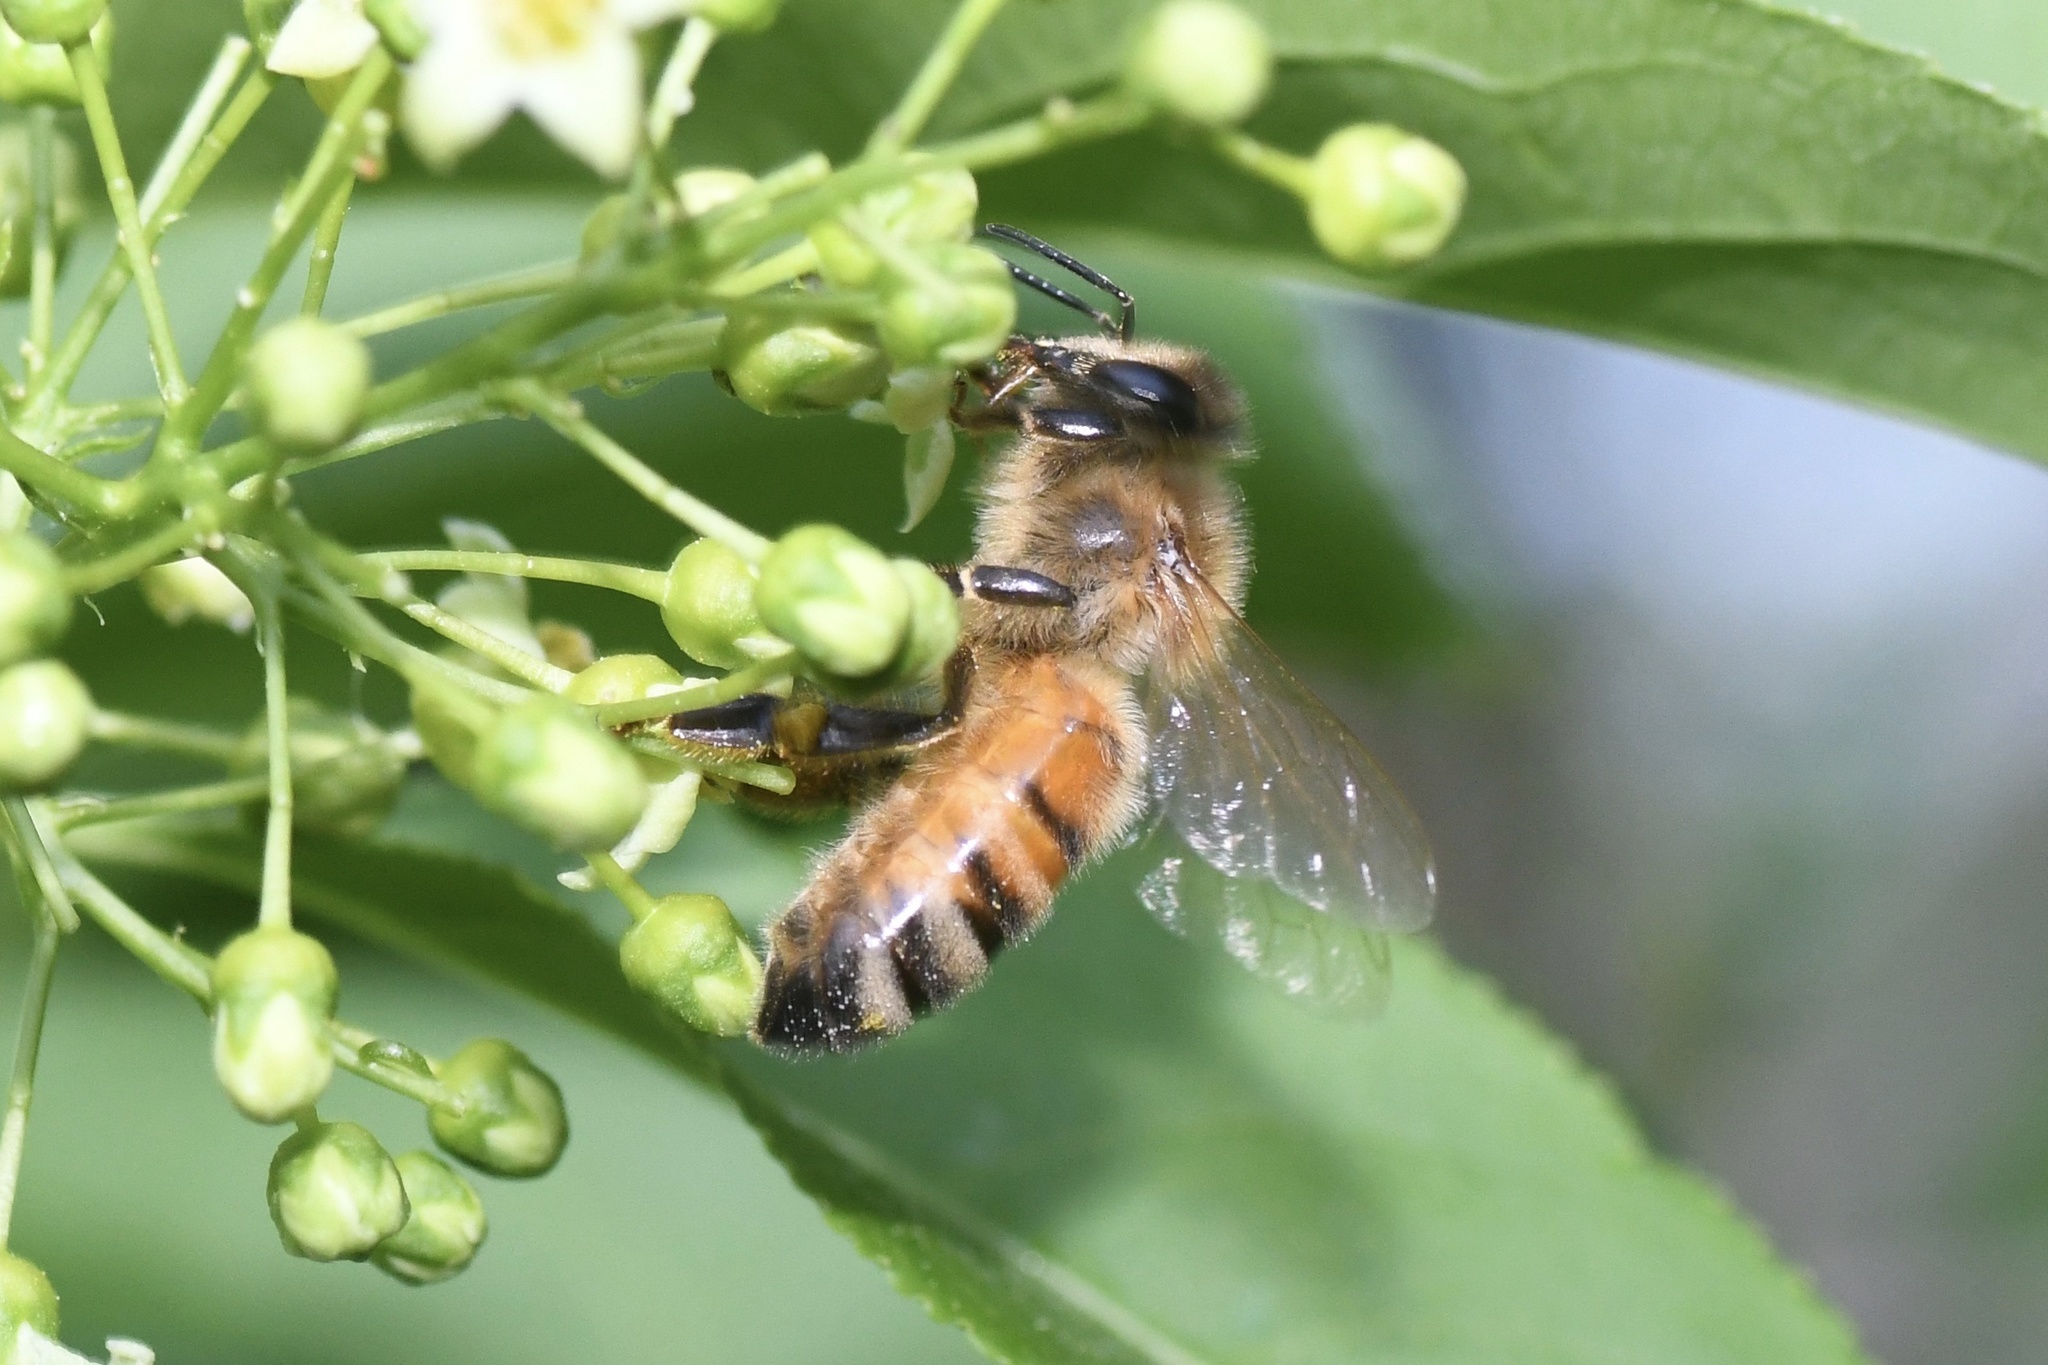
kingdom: Animalia
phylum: Arthropoda
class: Insecta
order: Hymenoptera
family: Apidae
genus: Apis
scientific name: Apis mellifera
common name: Honey bee
